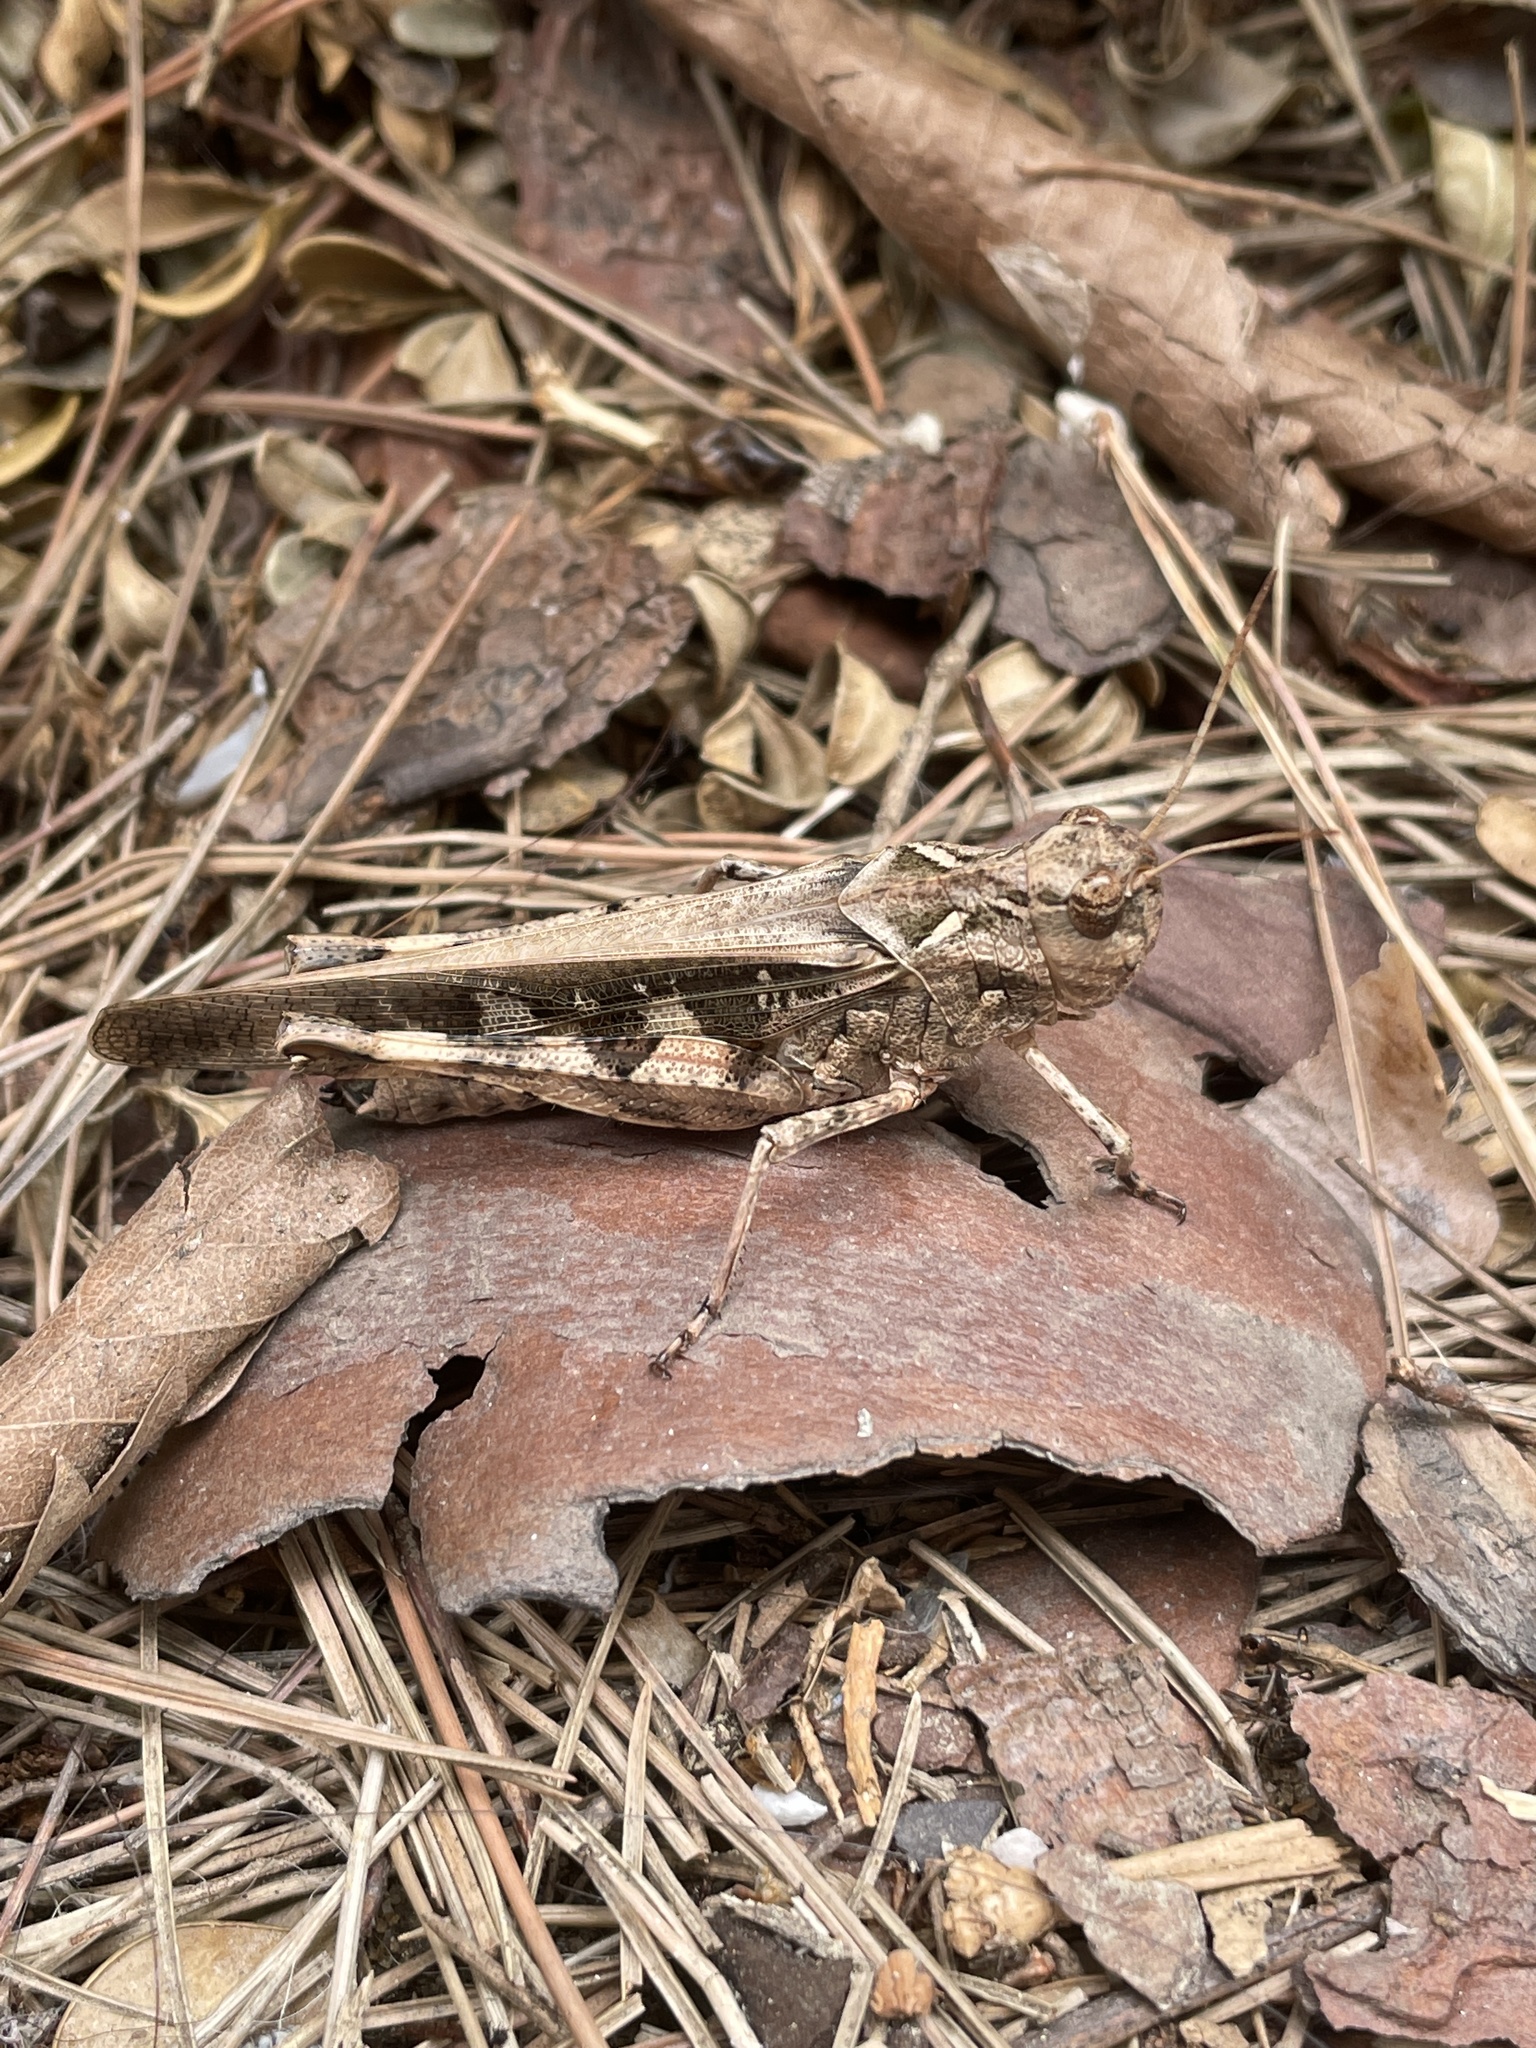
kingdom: Animalia
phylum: Arthropoda
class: Insecta
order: Orthoptera
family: Acrididae
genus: Oedaleus
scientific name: Oedaleus infernalis
